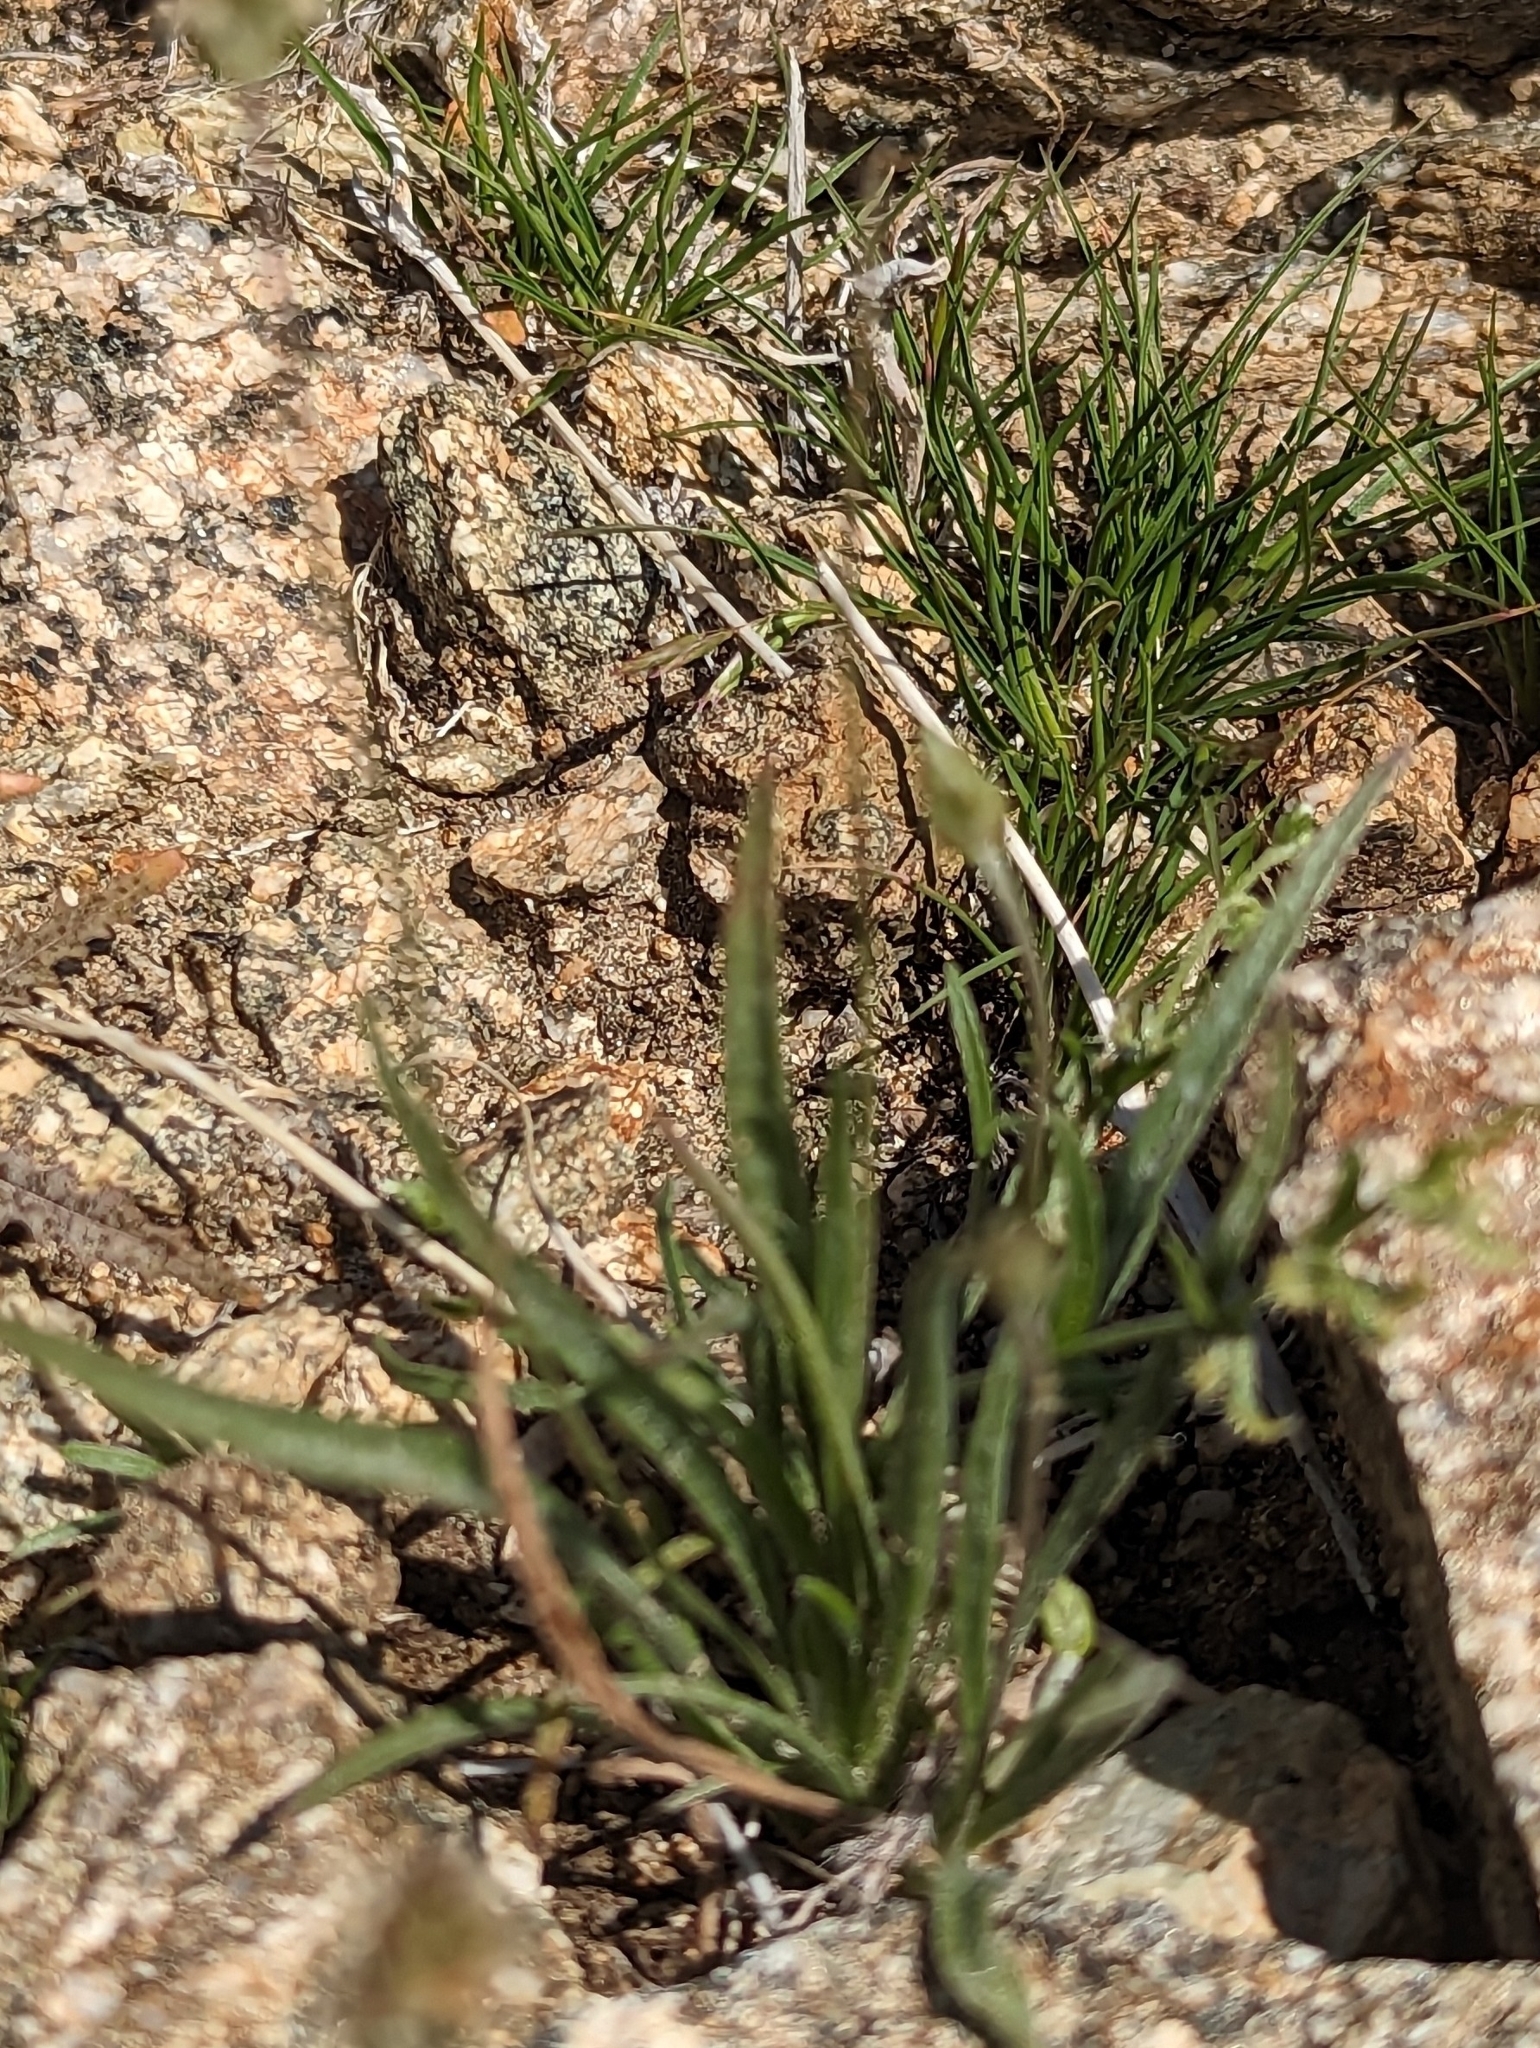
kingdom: Plantae
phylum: Tracheophyta
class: Magnoliopsida
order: Lamiales
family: Plantaginaceae
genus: Plantago
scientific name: Plantago ovata
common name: Blond plantain
